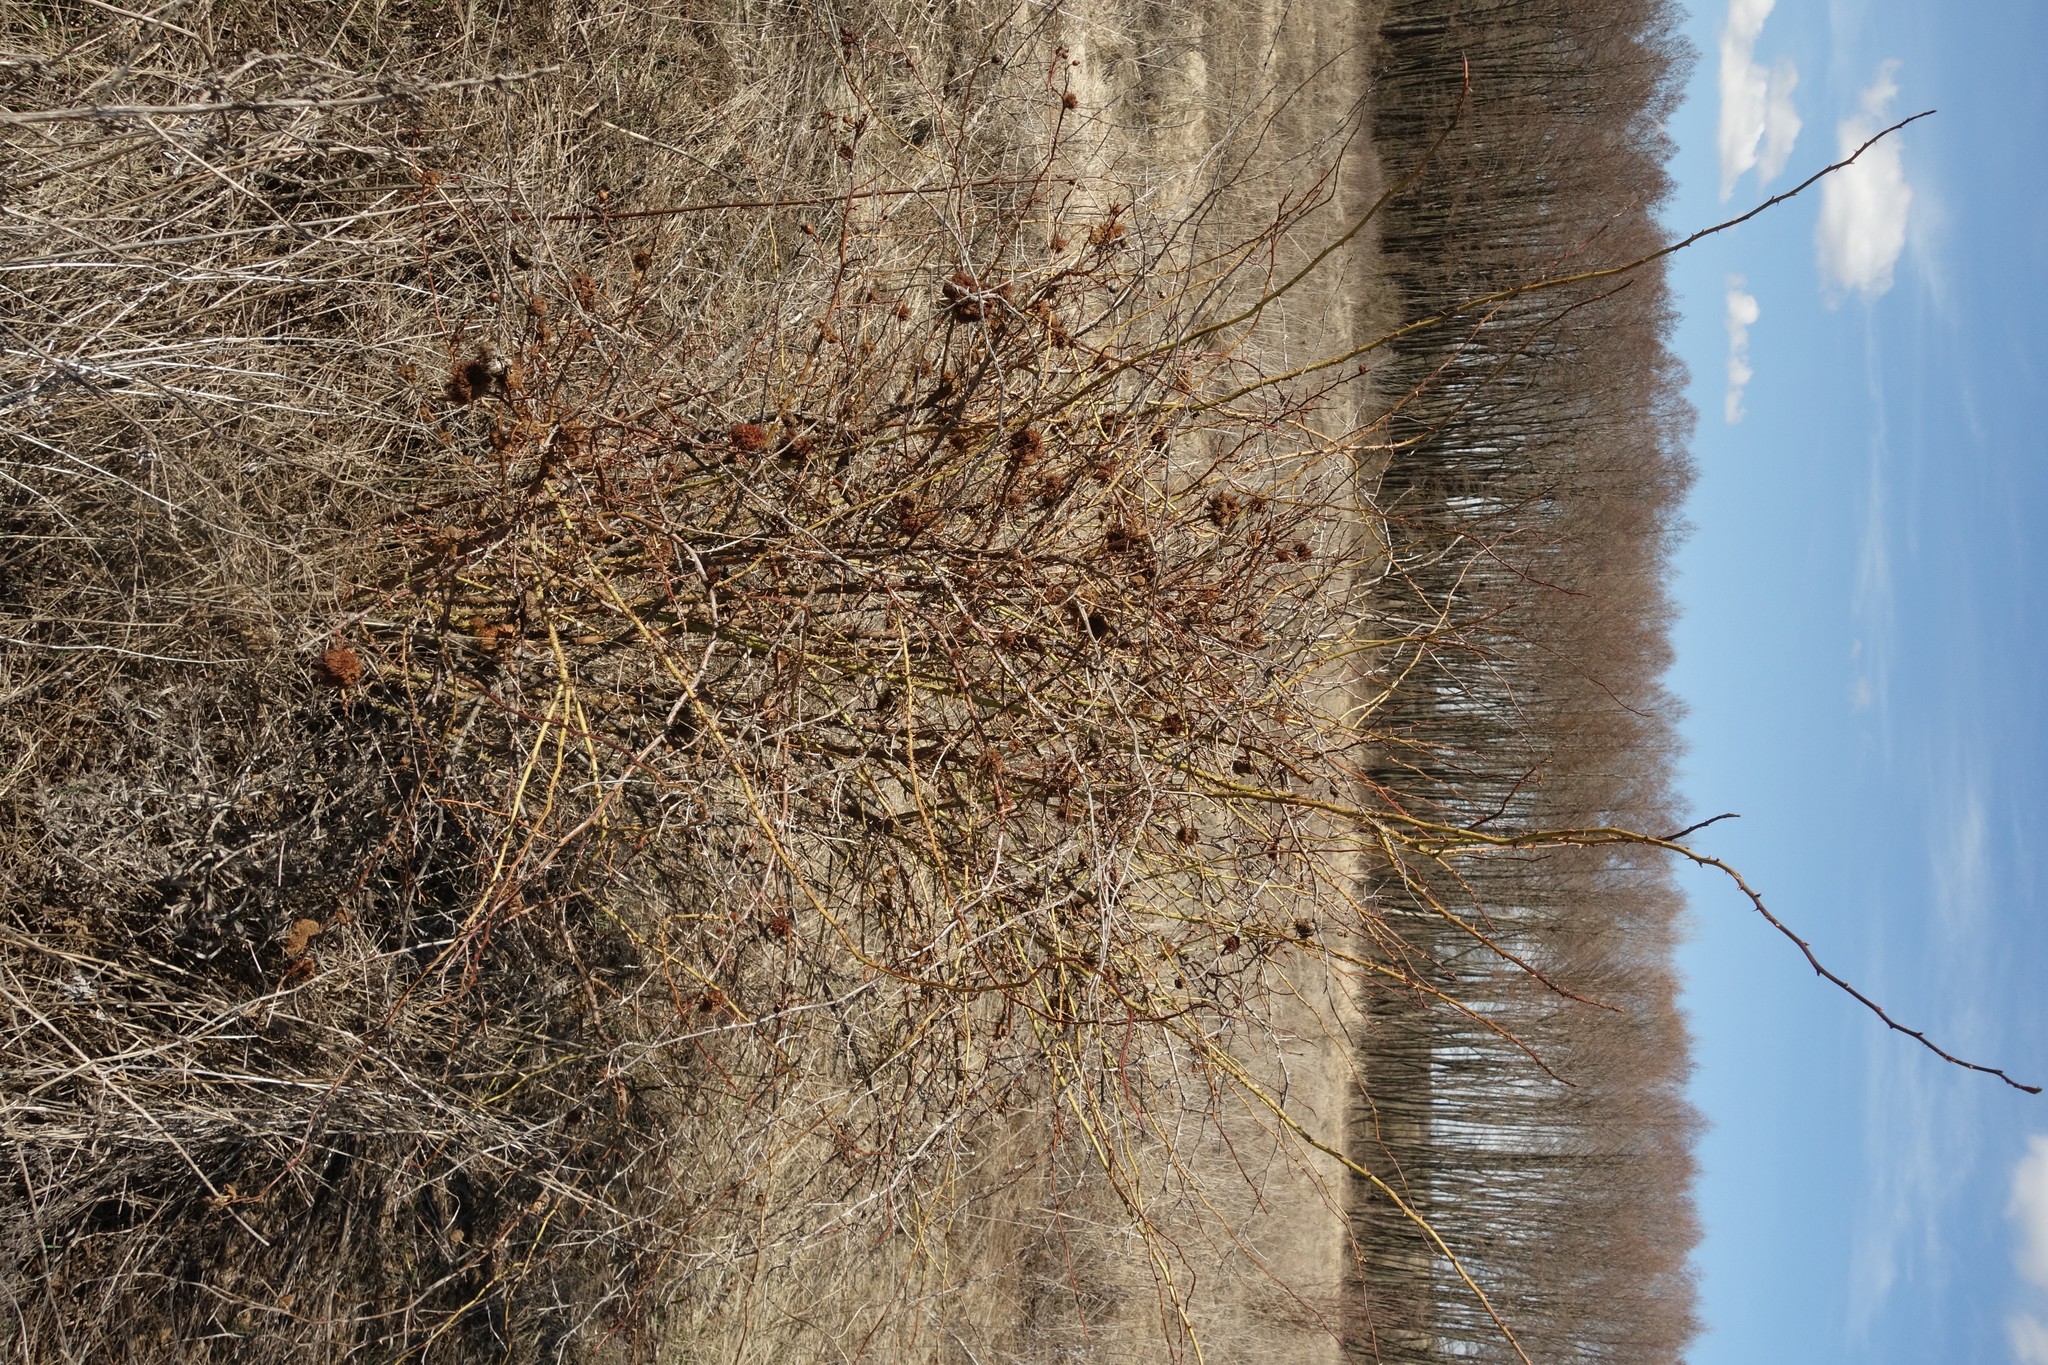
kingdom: Animalia
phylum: Arthropoda
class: Insecta
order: Hymenoptera
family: Cynipidae
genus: Diplolepis
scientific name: Diplolepis rosae
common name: Bedeguar gall
